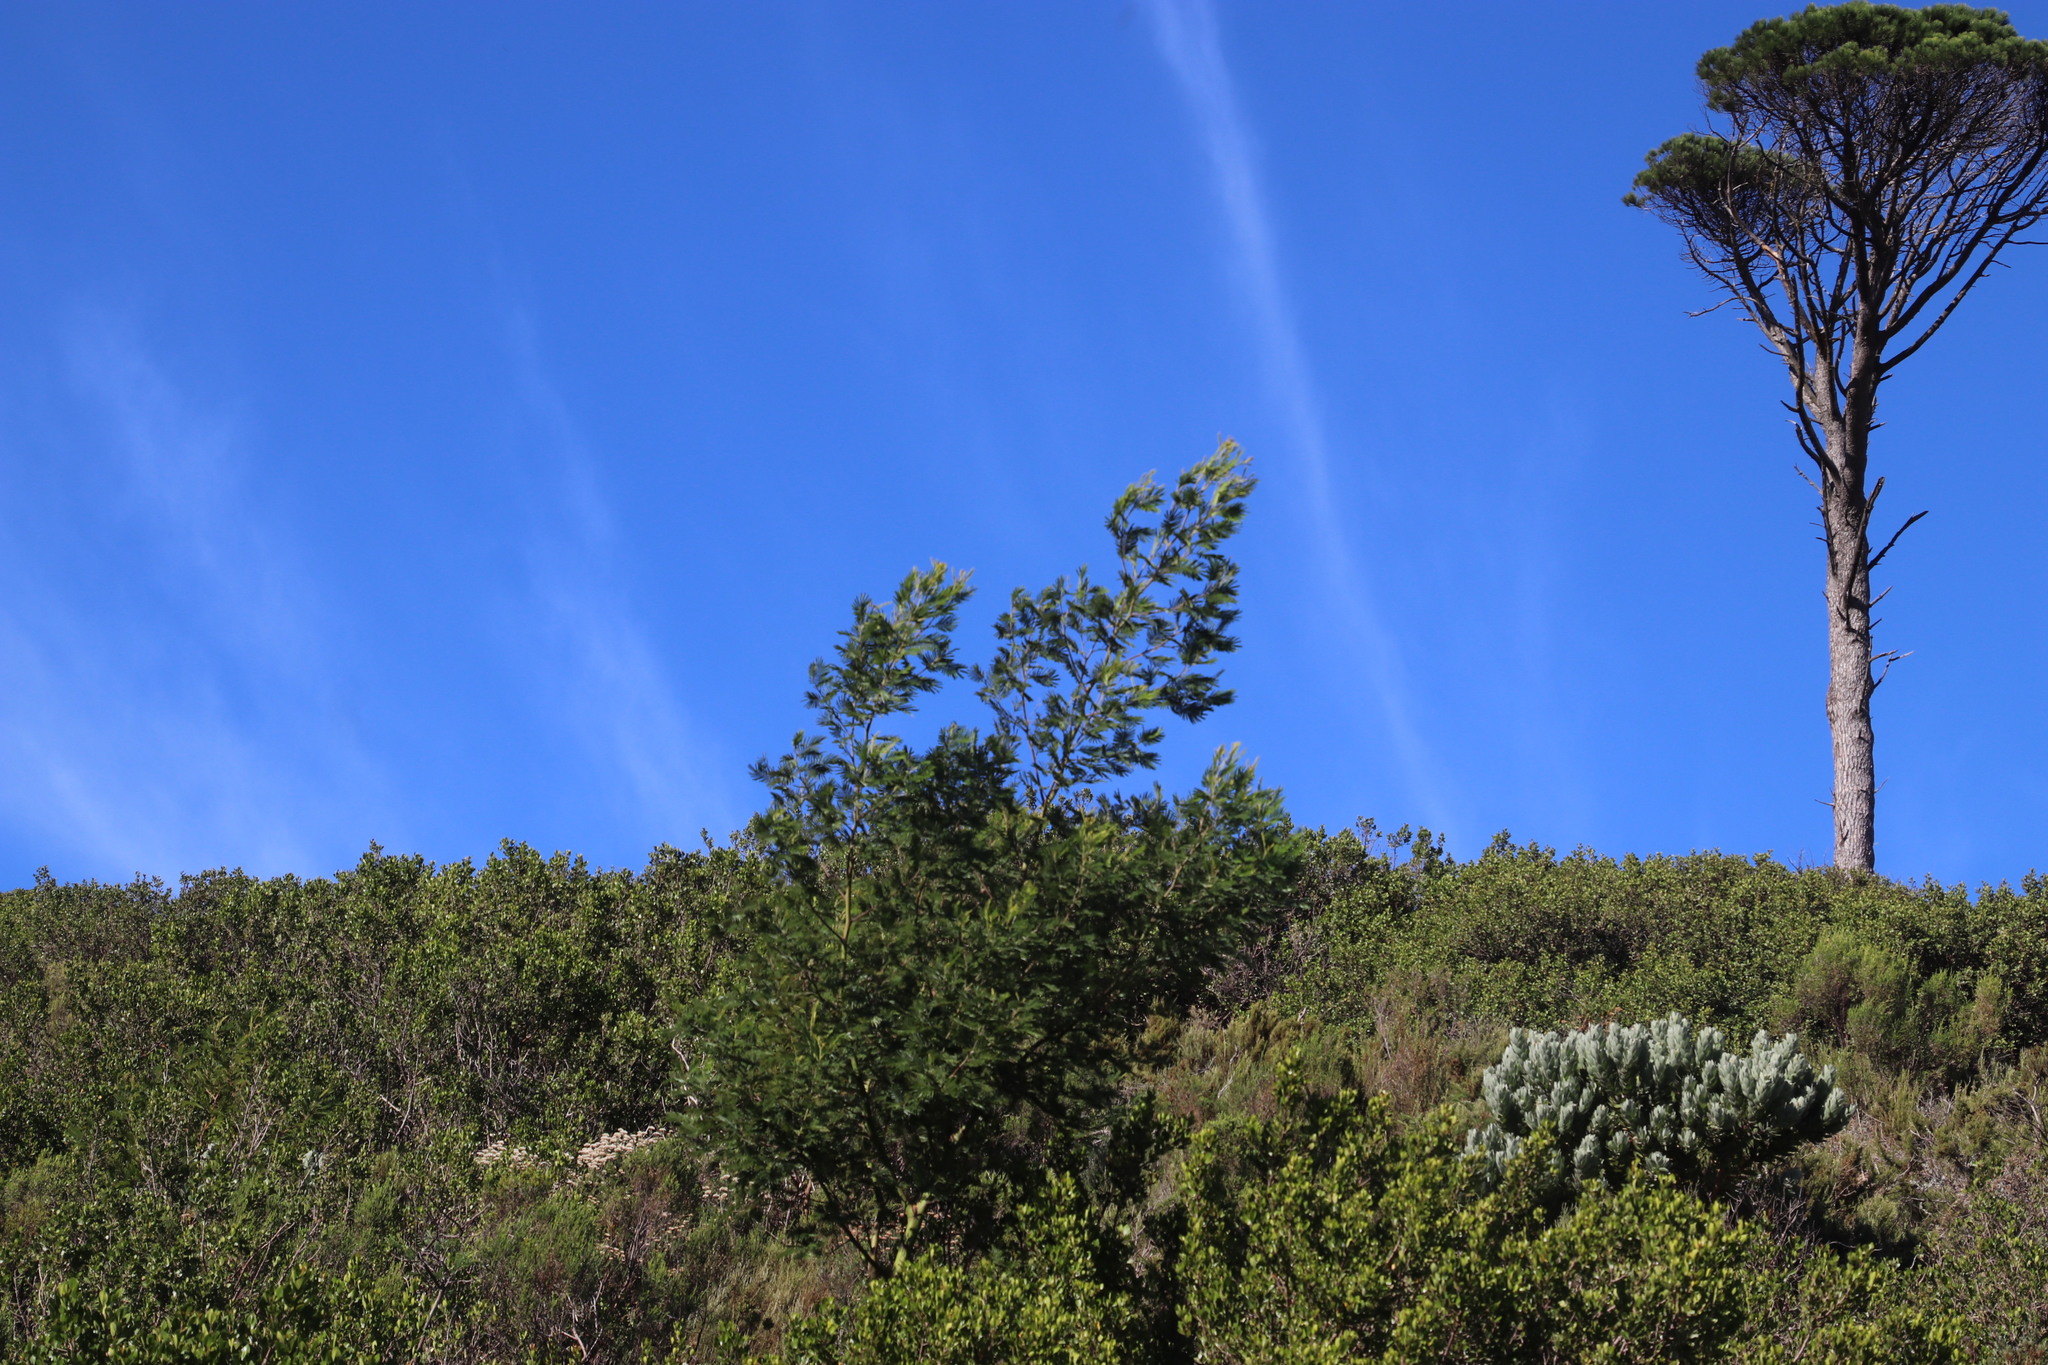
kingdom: Plantae
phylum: Tracheophyta
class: Magnoliopsida
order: Fabales
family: Fabaceae
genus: Acacia
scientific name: Acacia mearnsii
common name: Black wattle
